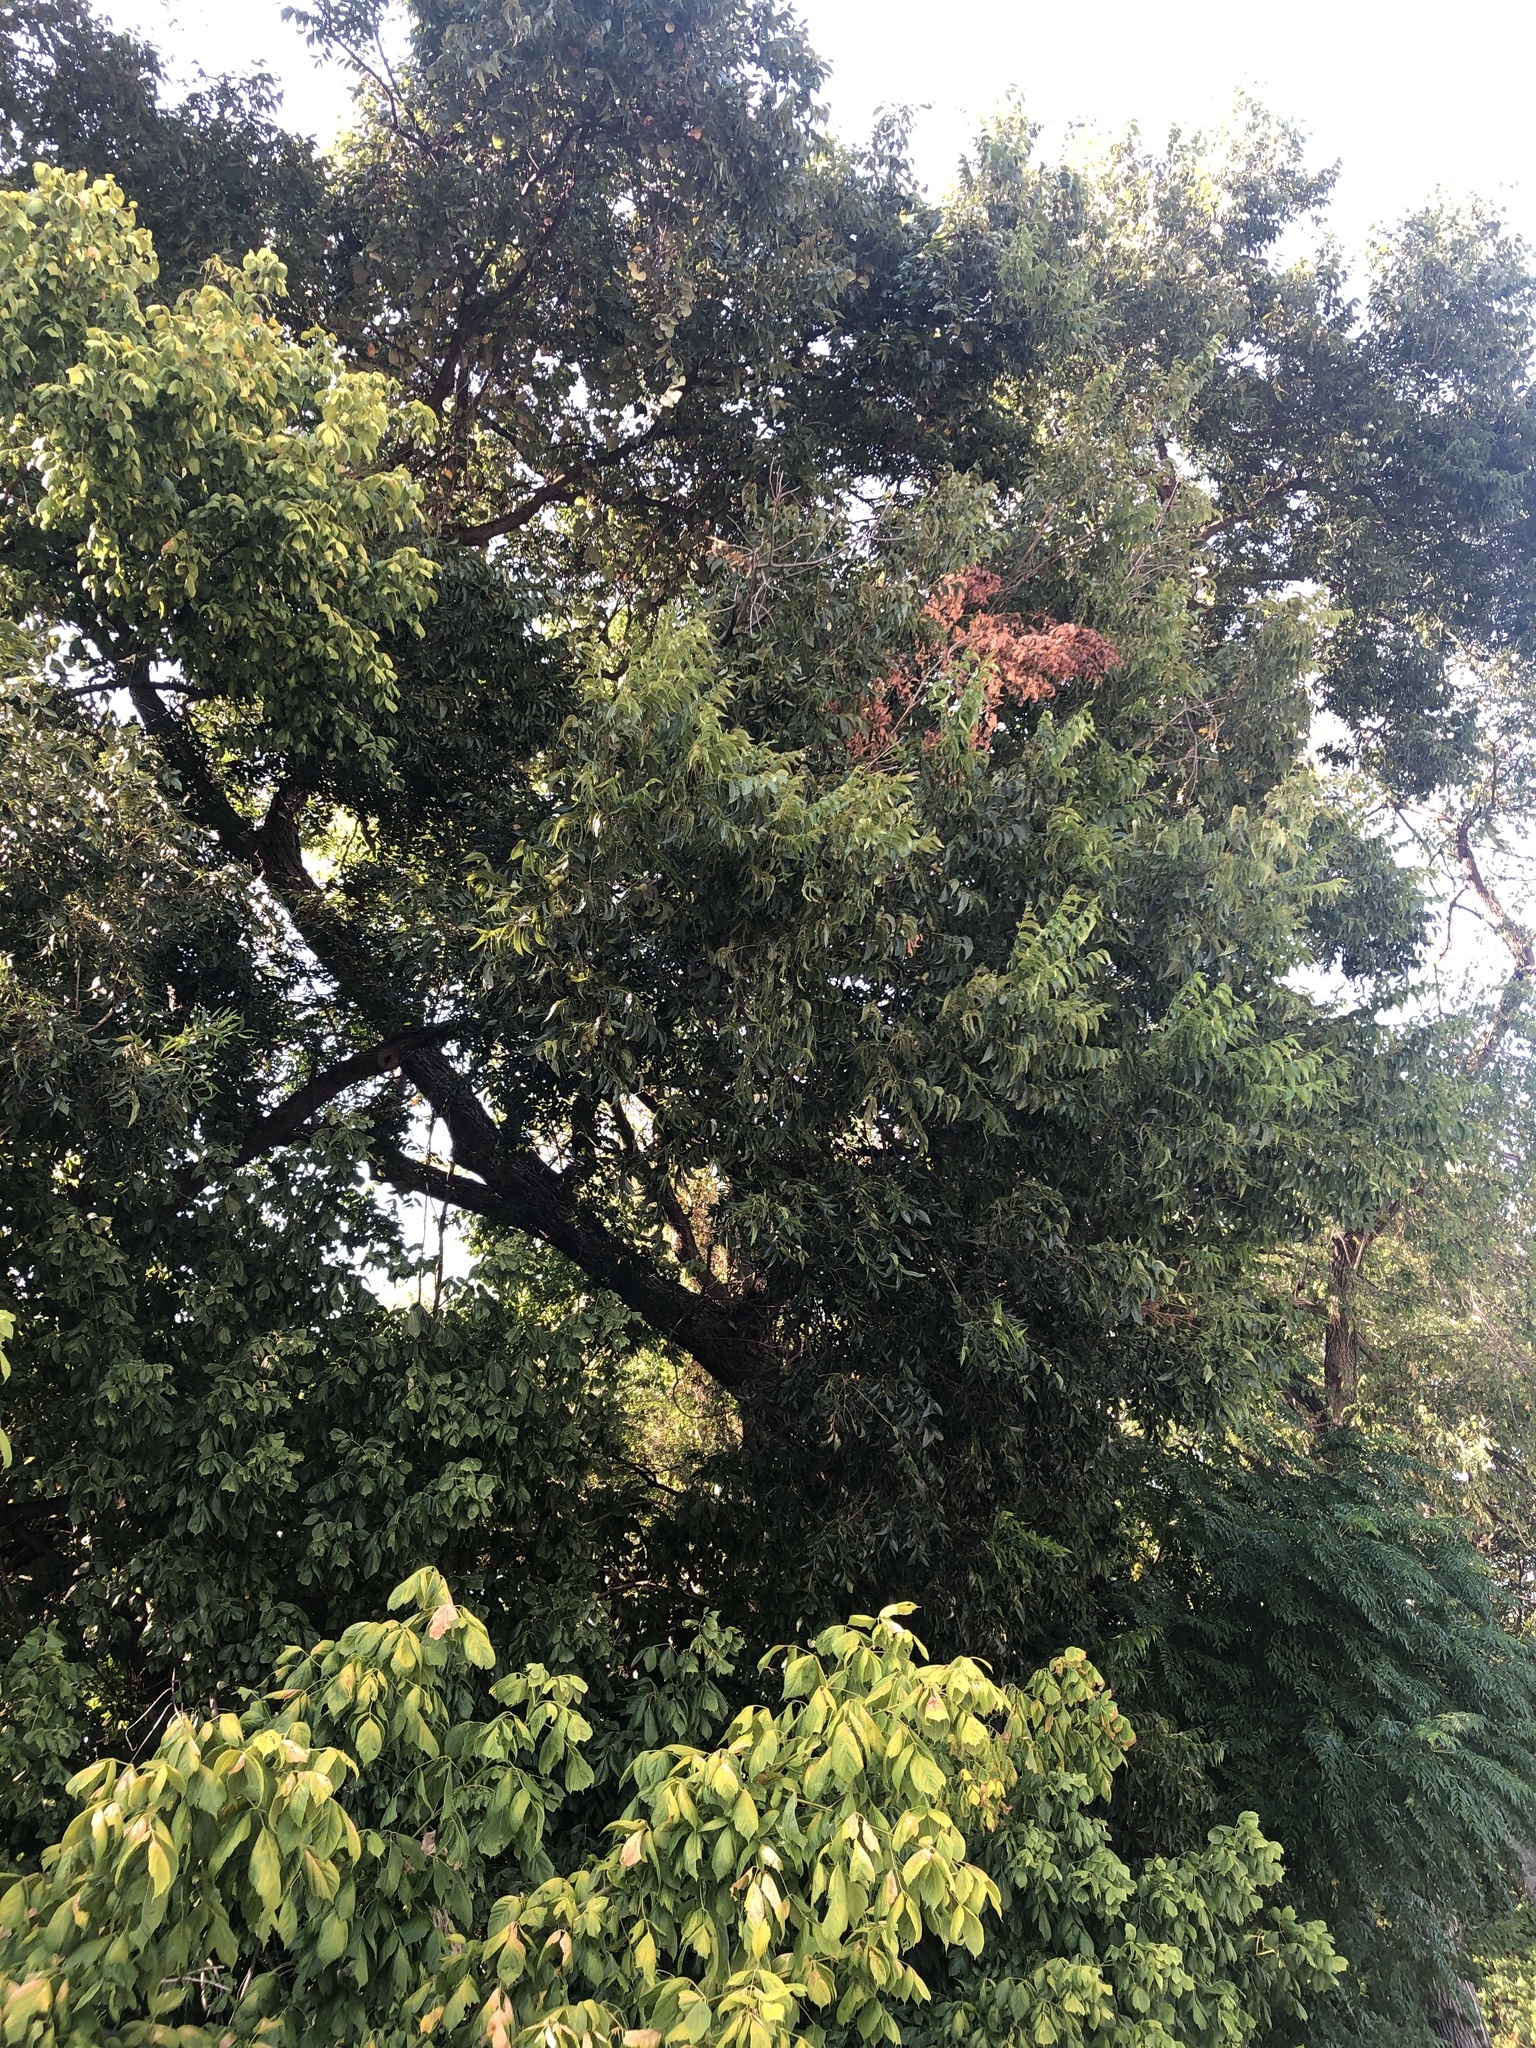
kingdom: Plantae
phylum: Tracheophyta
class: Magnoliopsida
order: Fagales
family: Juglandaceae
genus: Carya
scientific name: Carya illinoinensis
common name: Pecan
